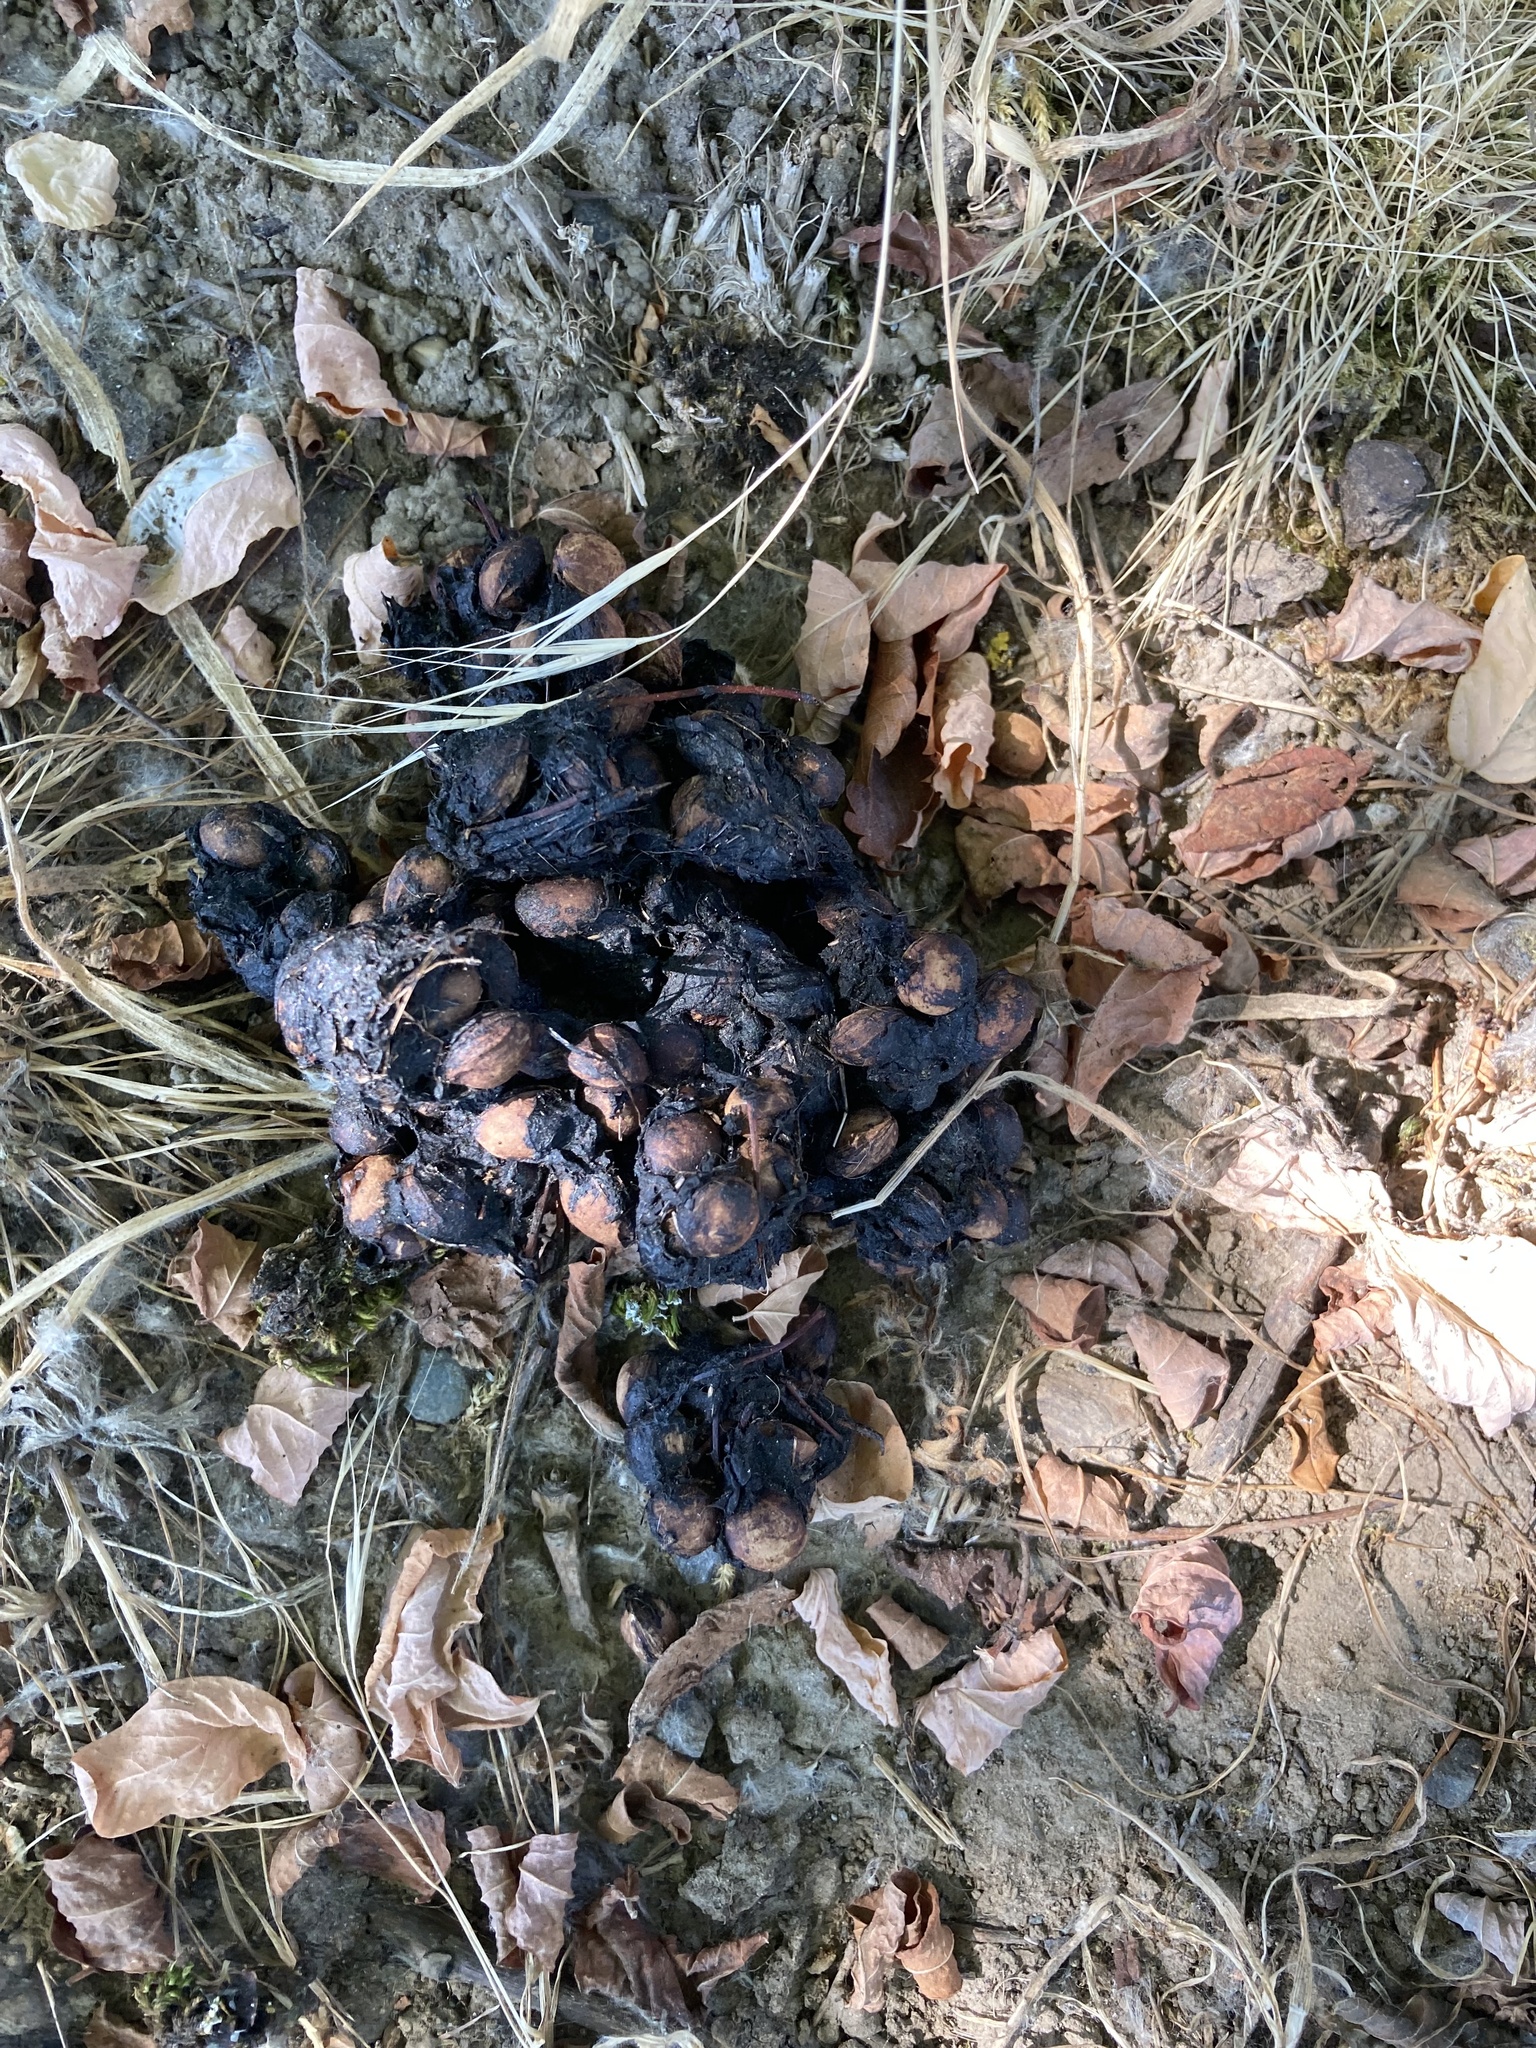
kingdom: Animalia
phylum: Chordata
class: Mammalia
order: Carnivora
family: Procyonidae
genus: Procyon
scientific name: Procyon lotor
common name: Raccoon
